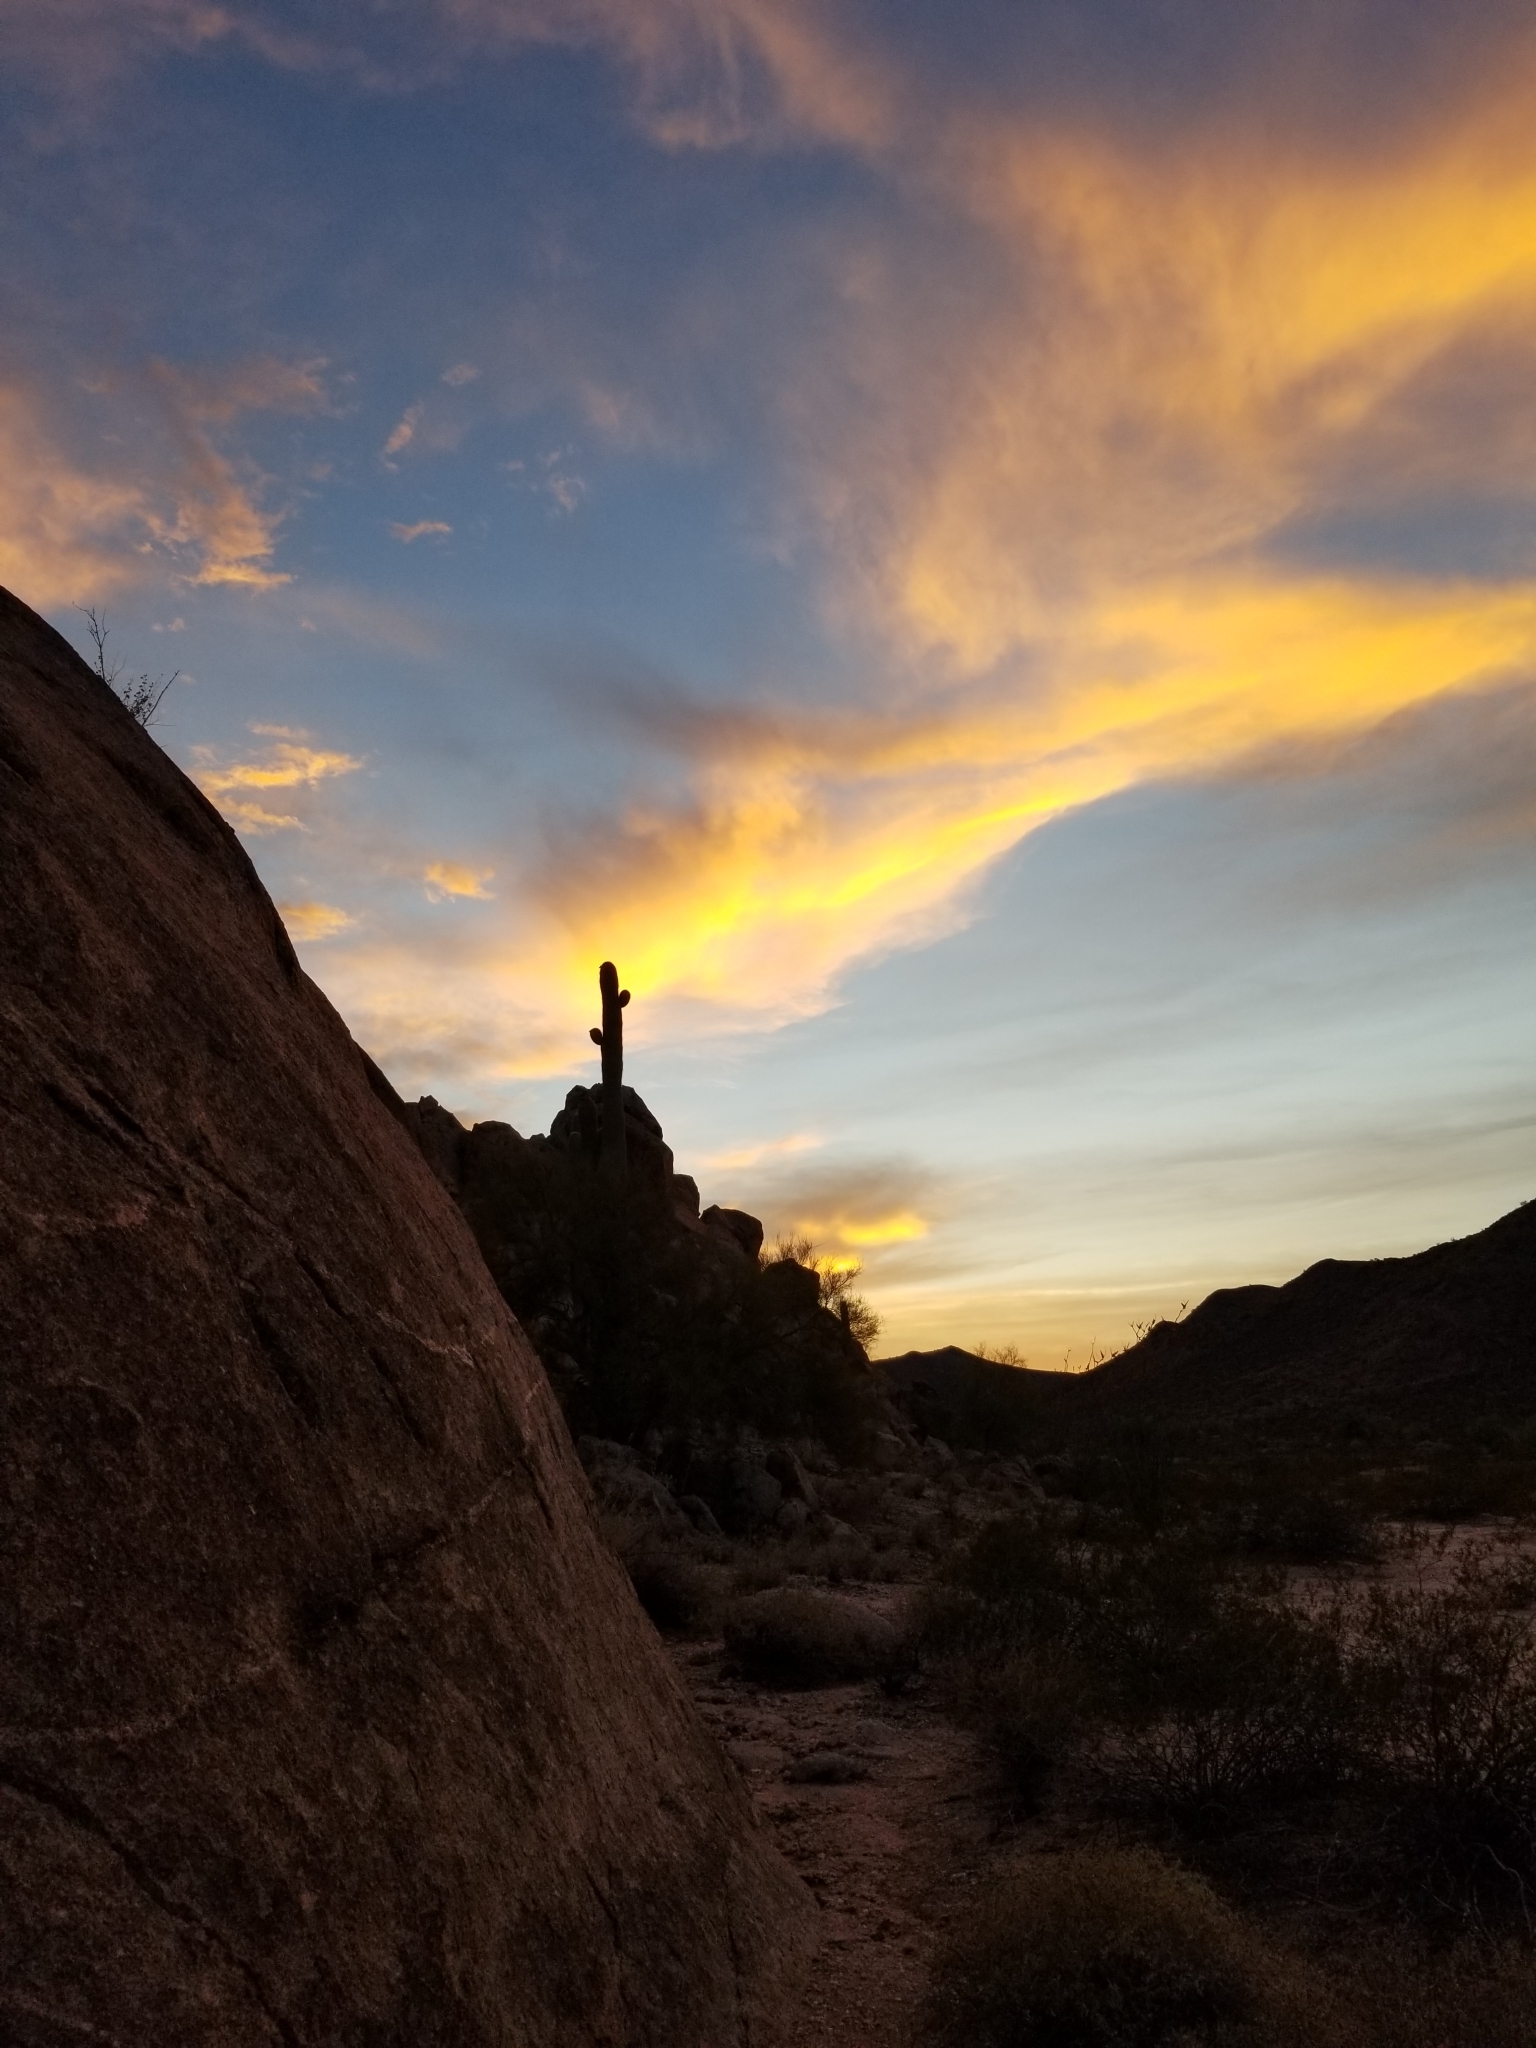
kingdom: Plantae
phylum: Tracheophyta
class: Magnoliopsida
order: Caryophyllales
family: Cactaceae
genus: Carnegiea
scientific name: Carnegiea gigantea
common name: Saguaro
